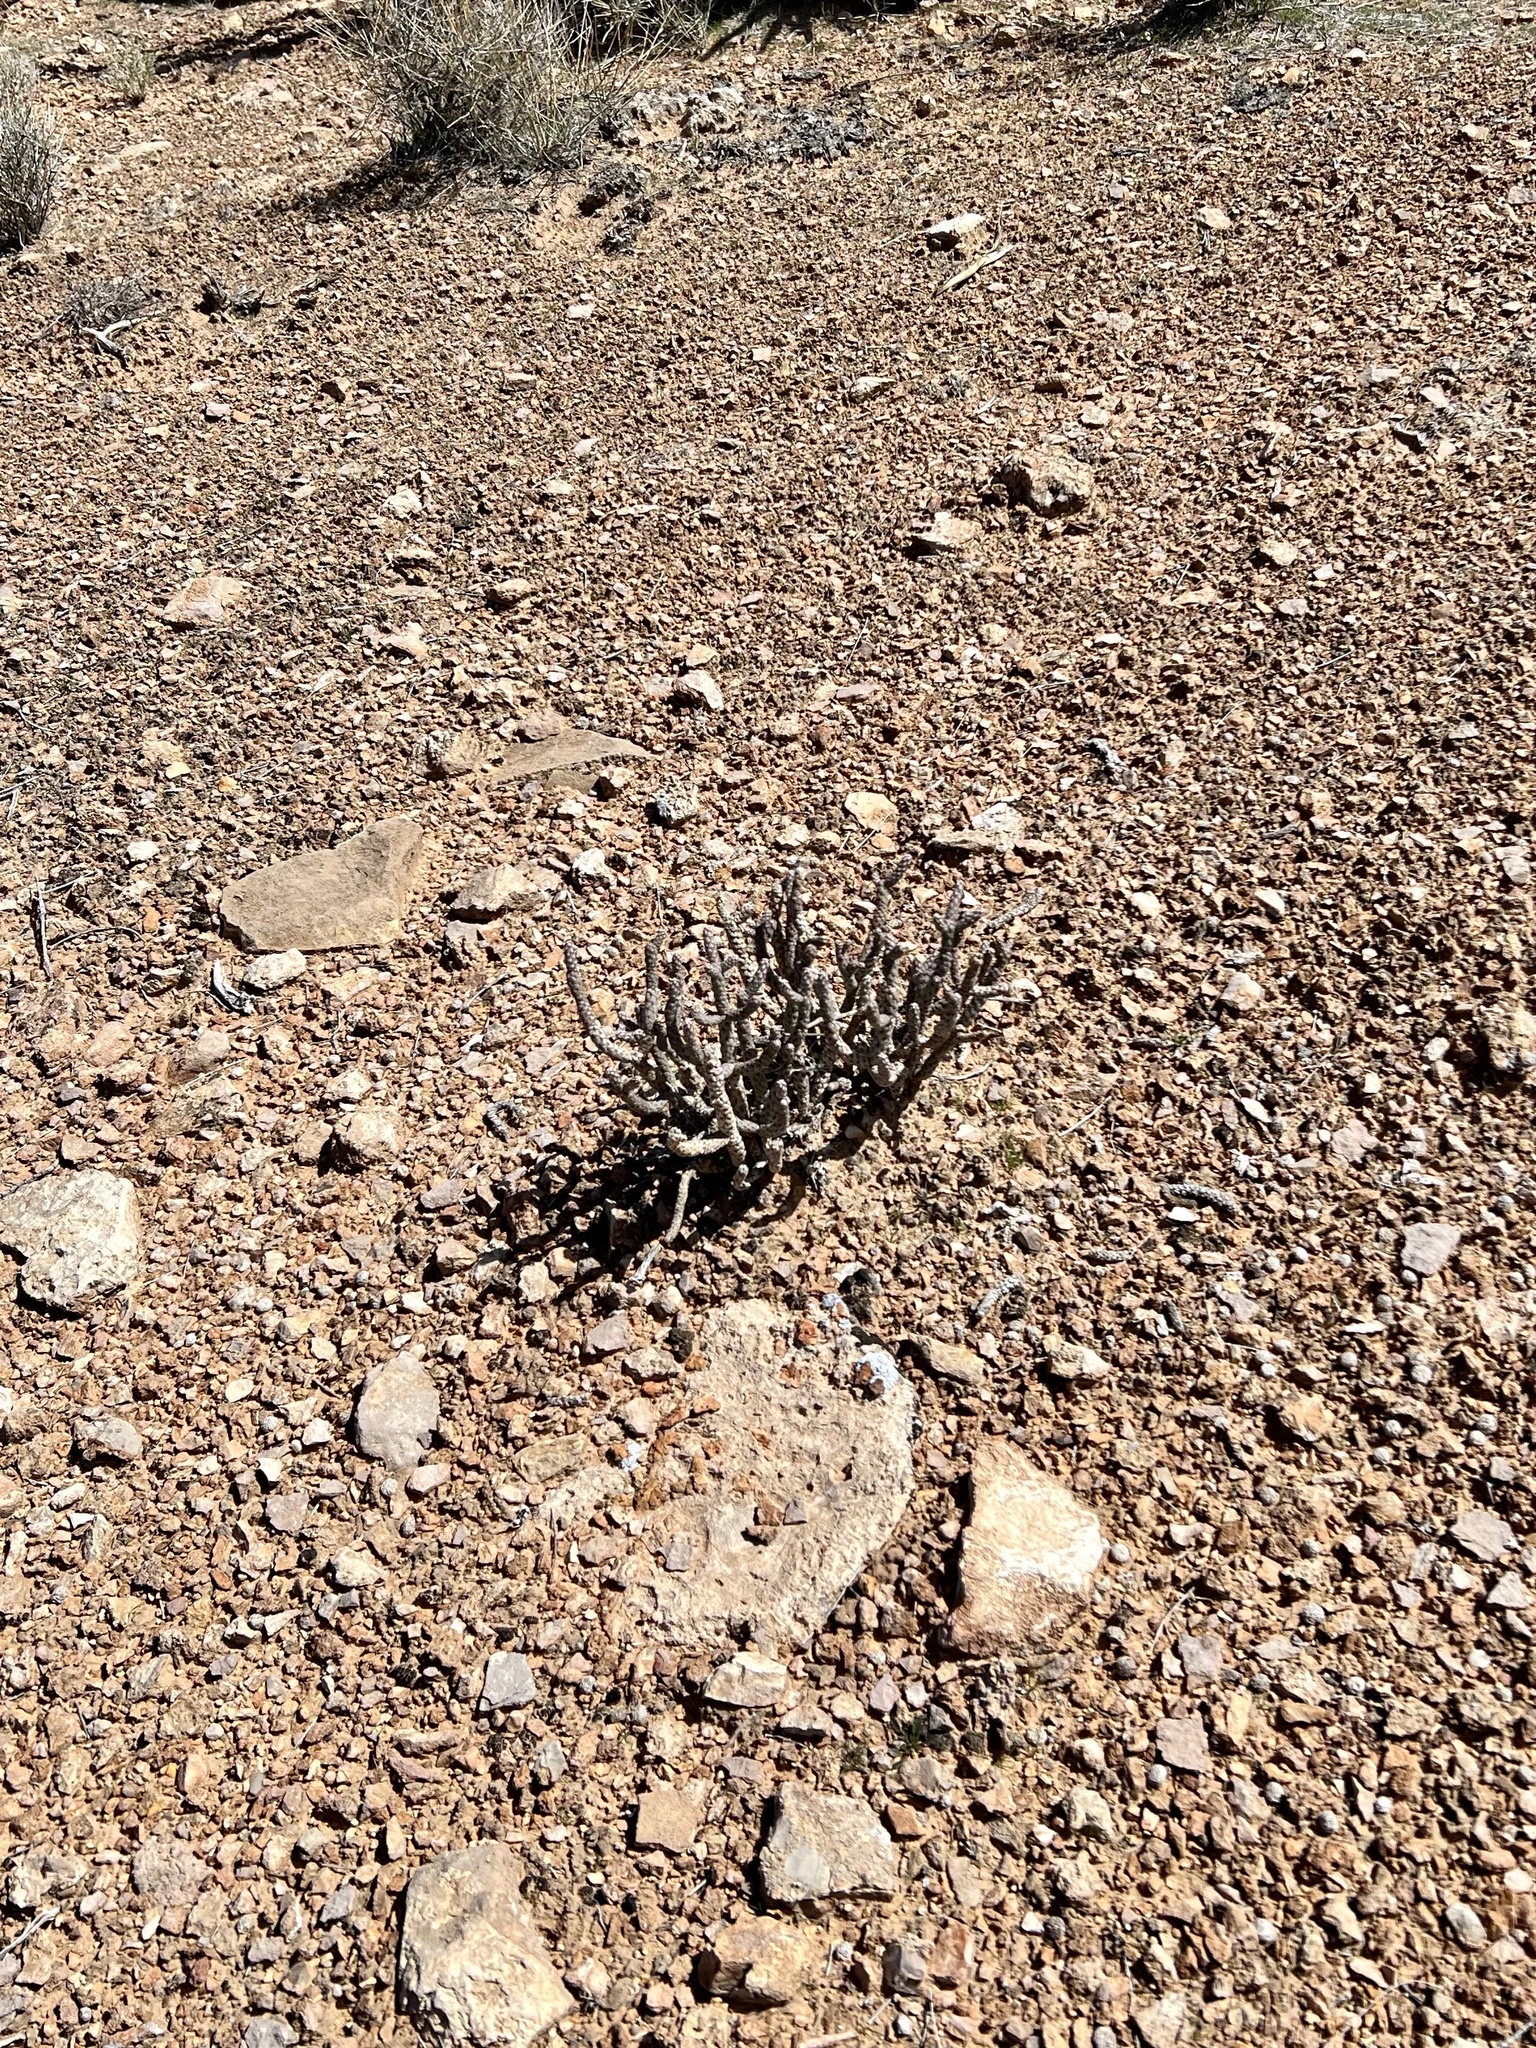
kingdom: Plantae
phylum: Tracheophyta
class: Magnoliopsida
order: Caryophyllales
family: Cactaceae
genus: Cylindropuntia
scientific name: Cylindropuntia ramosissima
